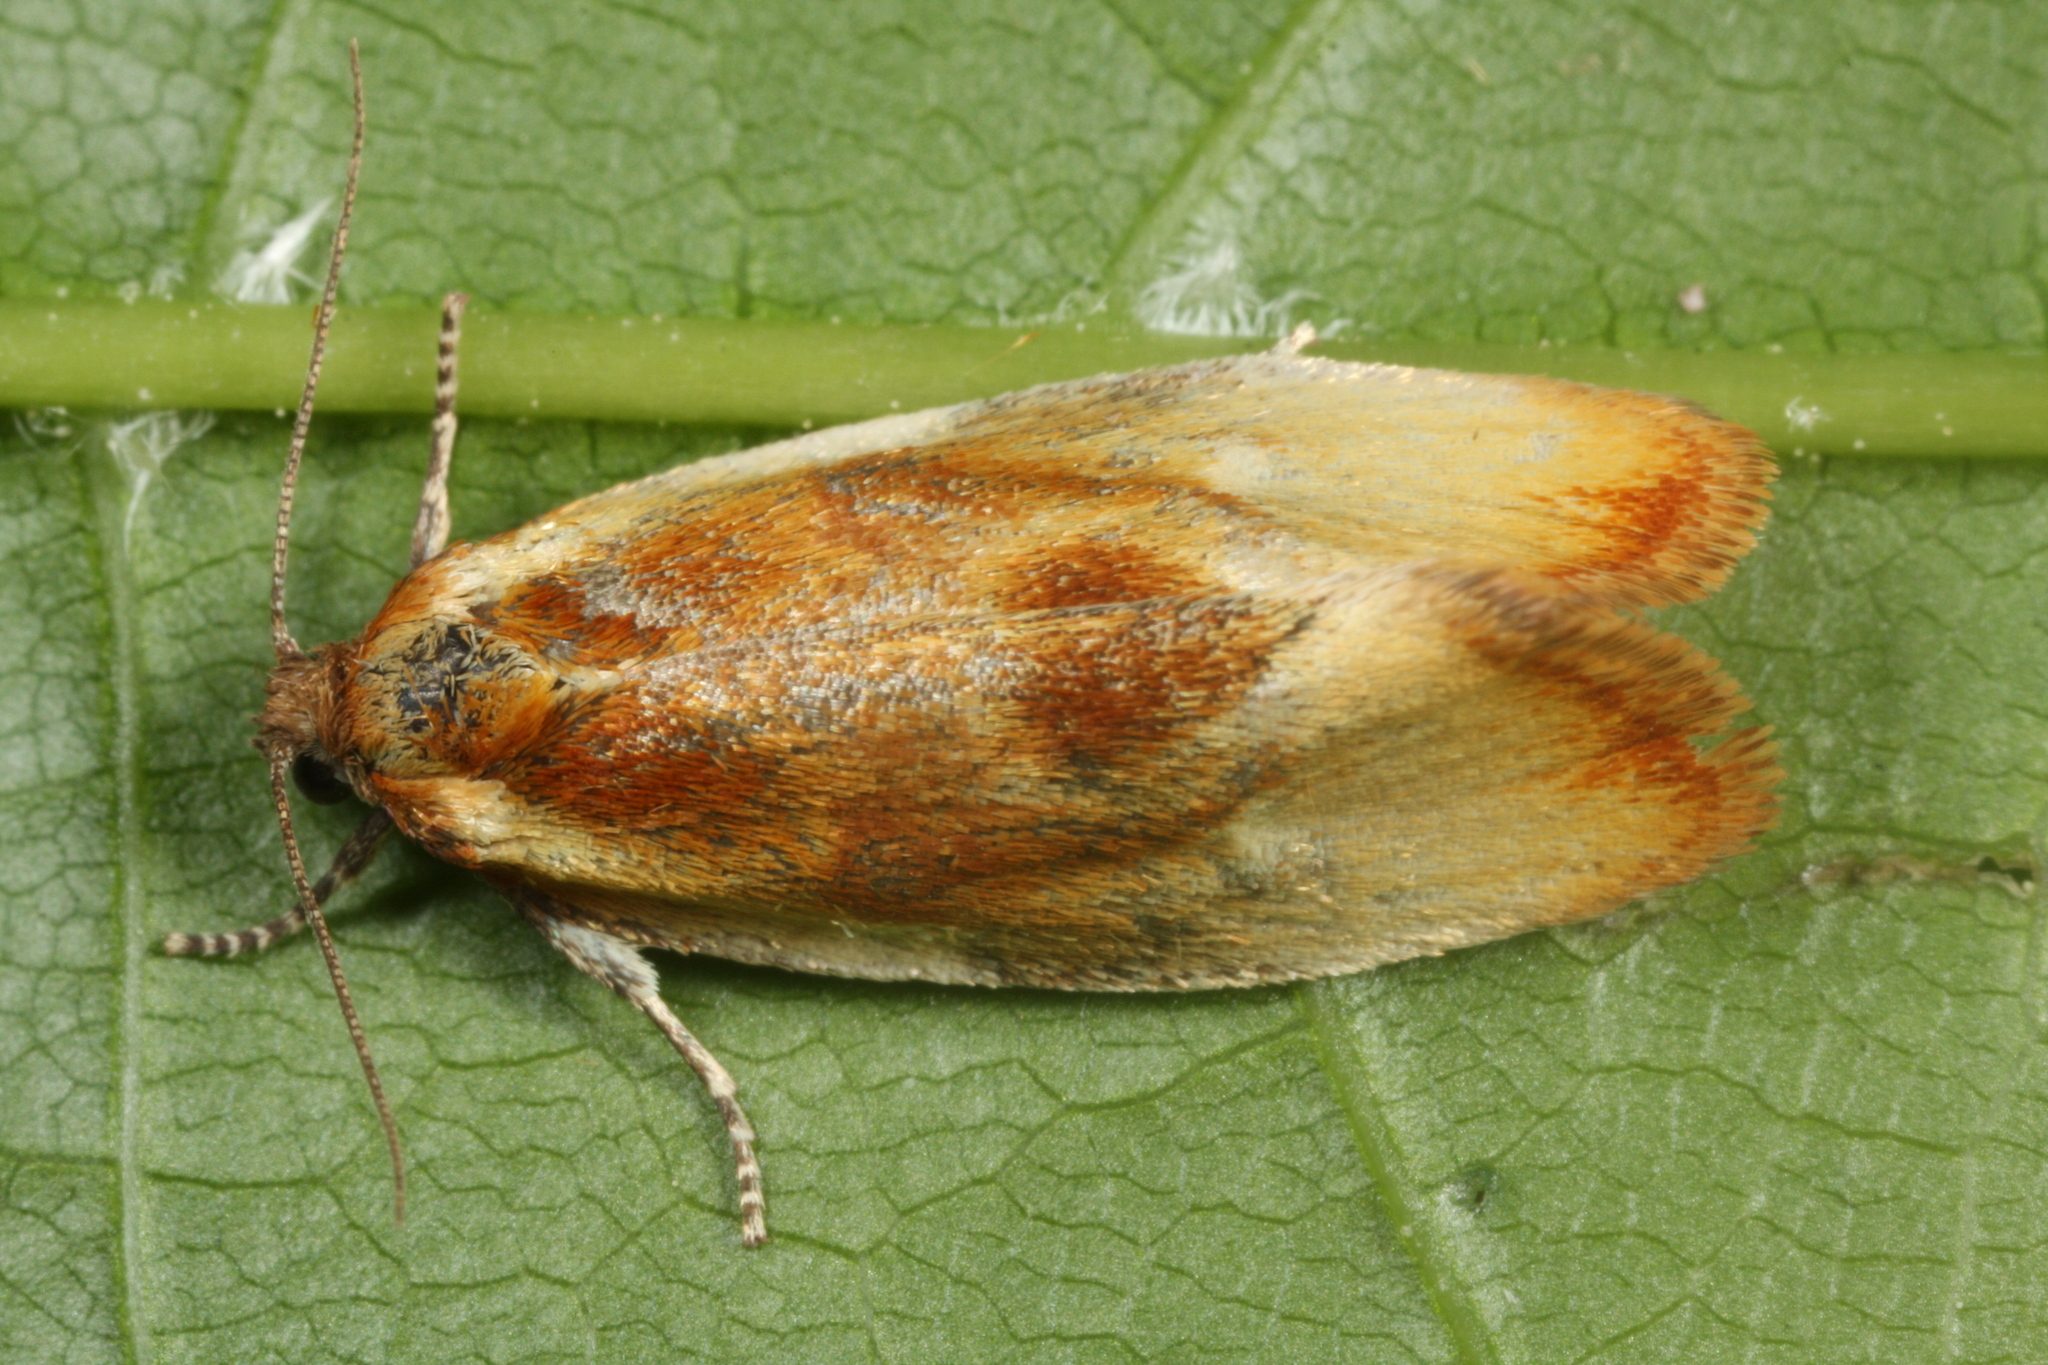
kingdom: Animalia
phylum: Arthropoda
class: Insecta
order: Lepidoptera
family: Tortricidae
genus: Eulia
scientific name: Eulia ministrana
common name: Brassy twist
